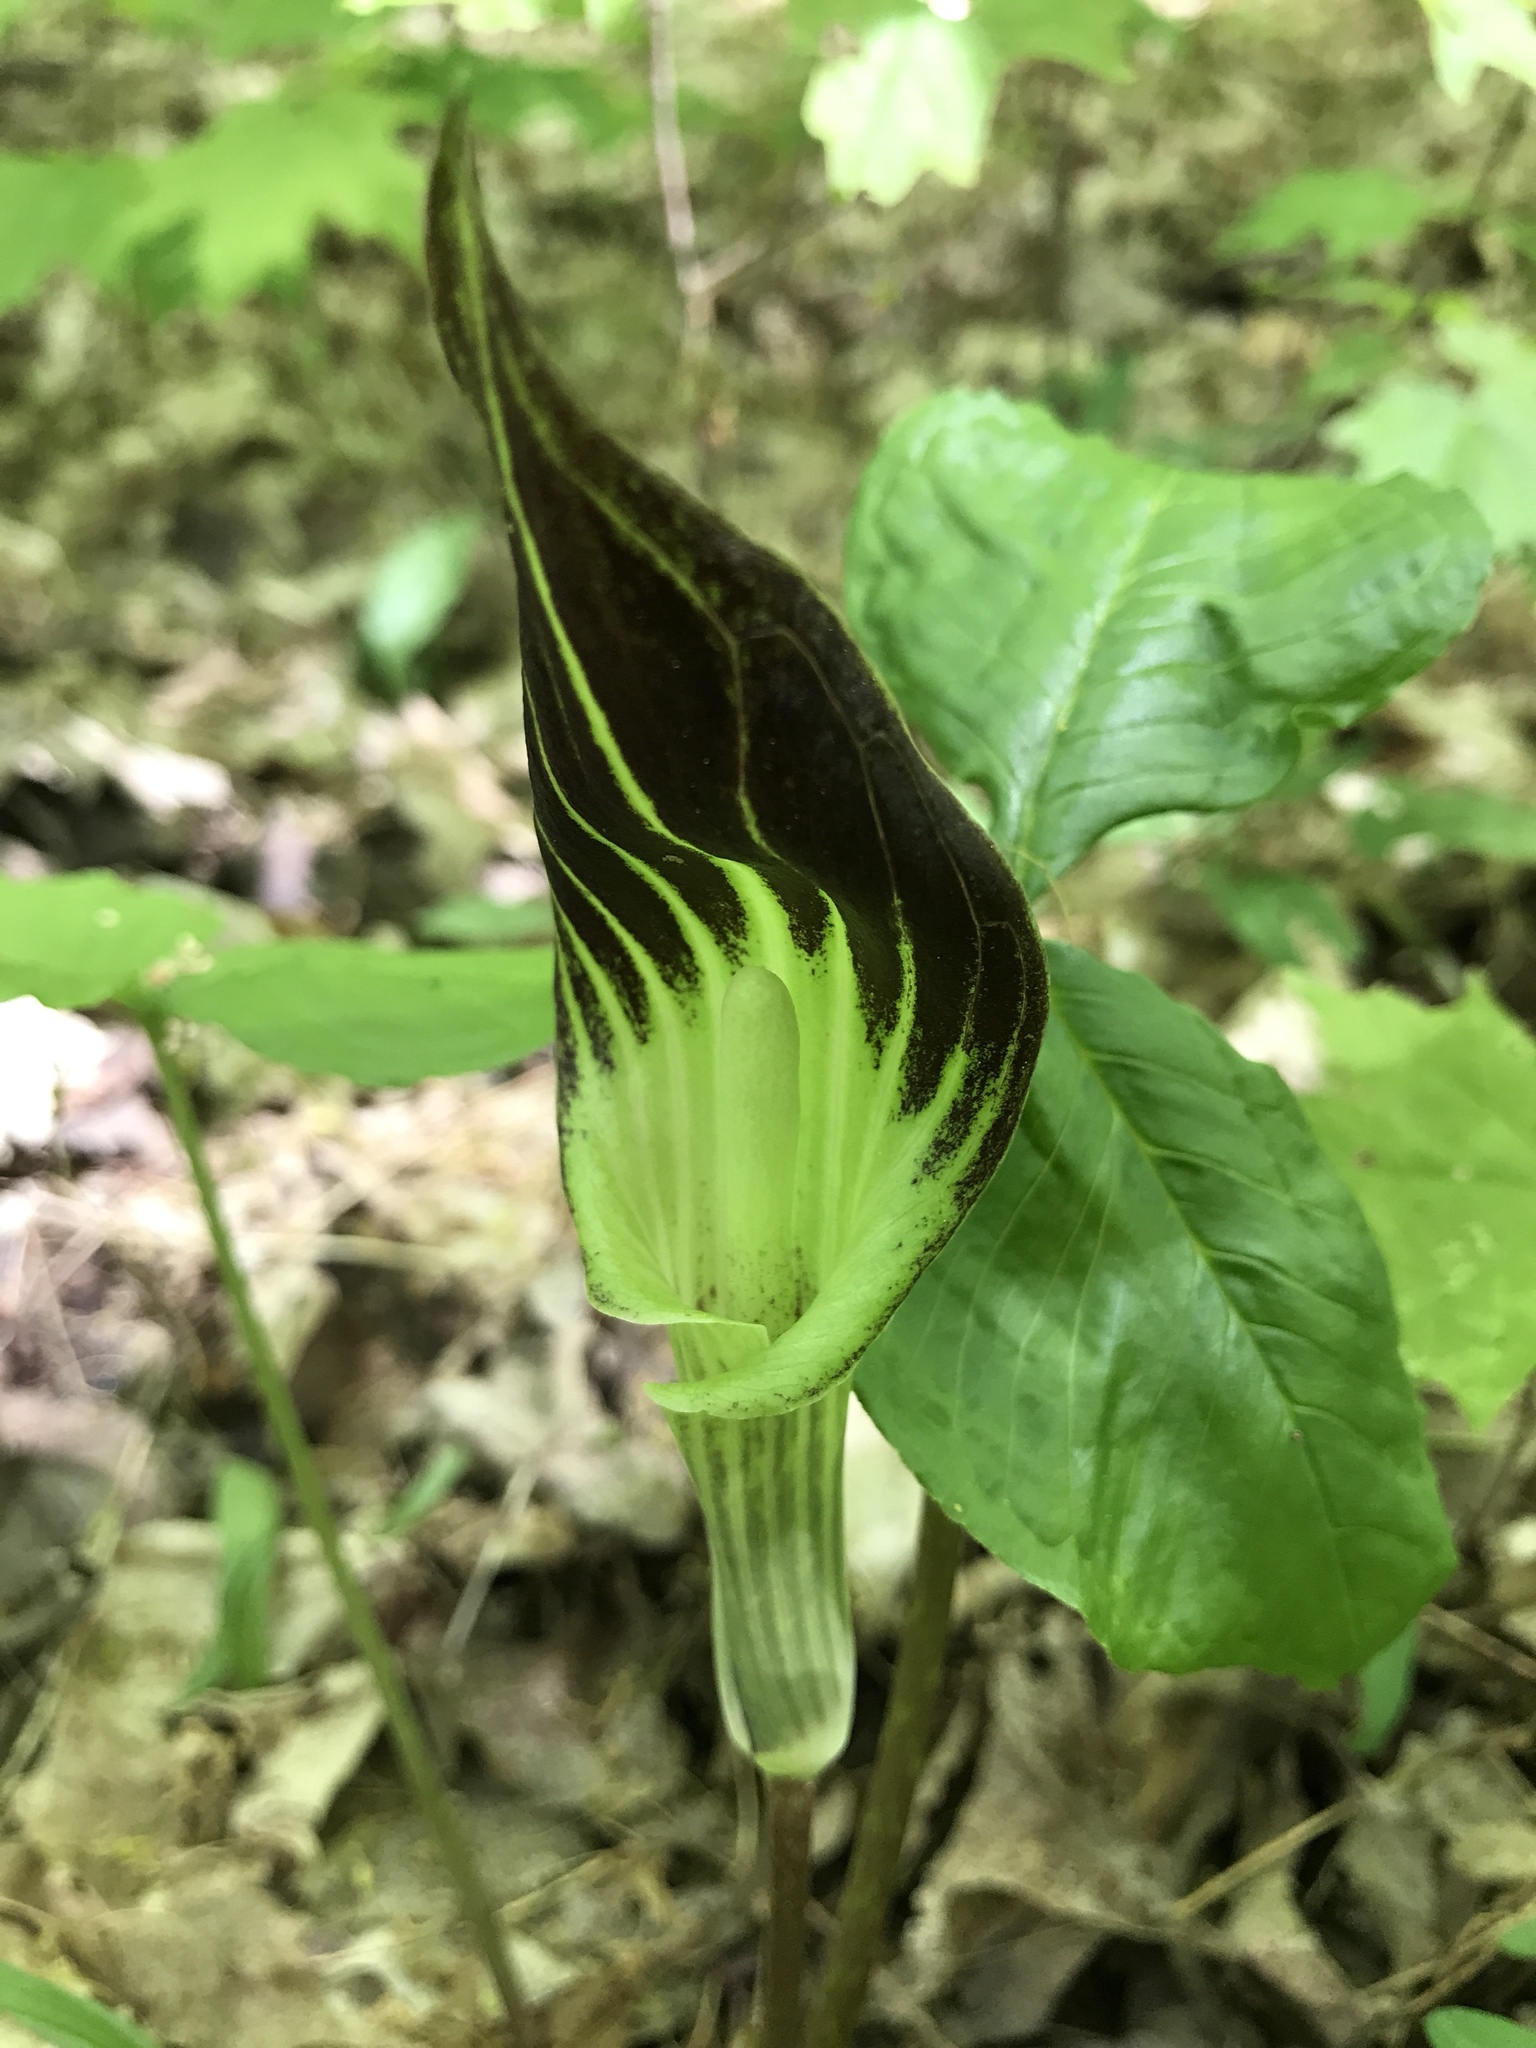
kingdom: Plantae
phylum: Tracheophyta
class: Liliopsida
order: Alismatales
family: Araceae
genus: Arisaema
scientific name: Arisaema triphyllum
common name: Jack-in-the-pulpit
